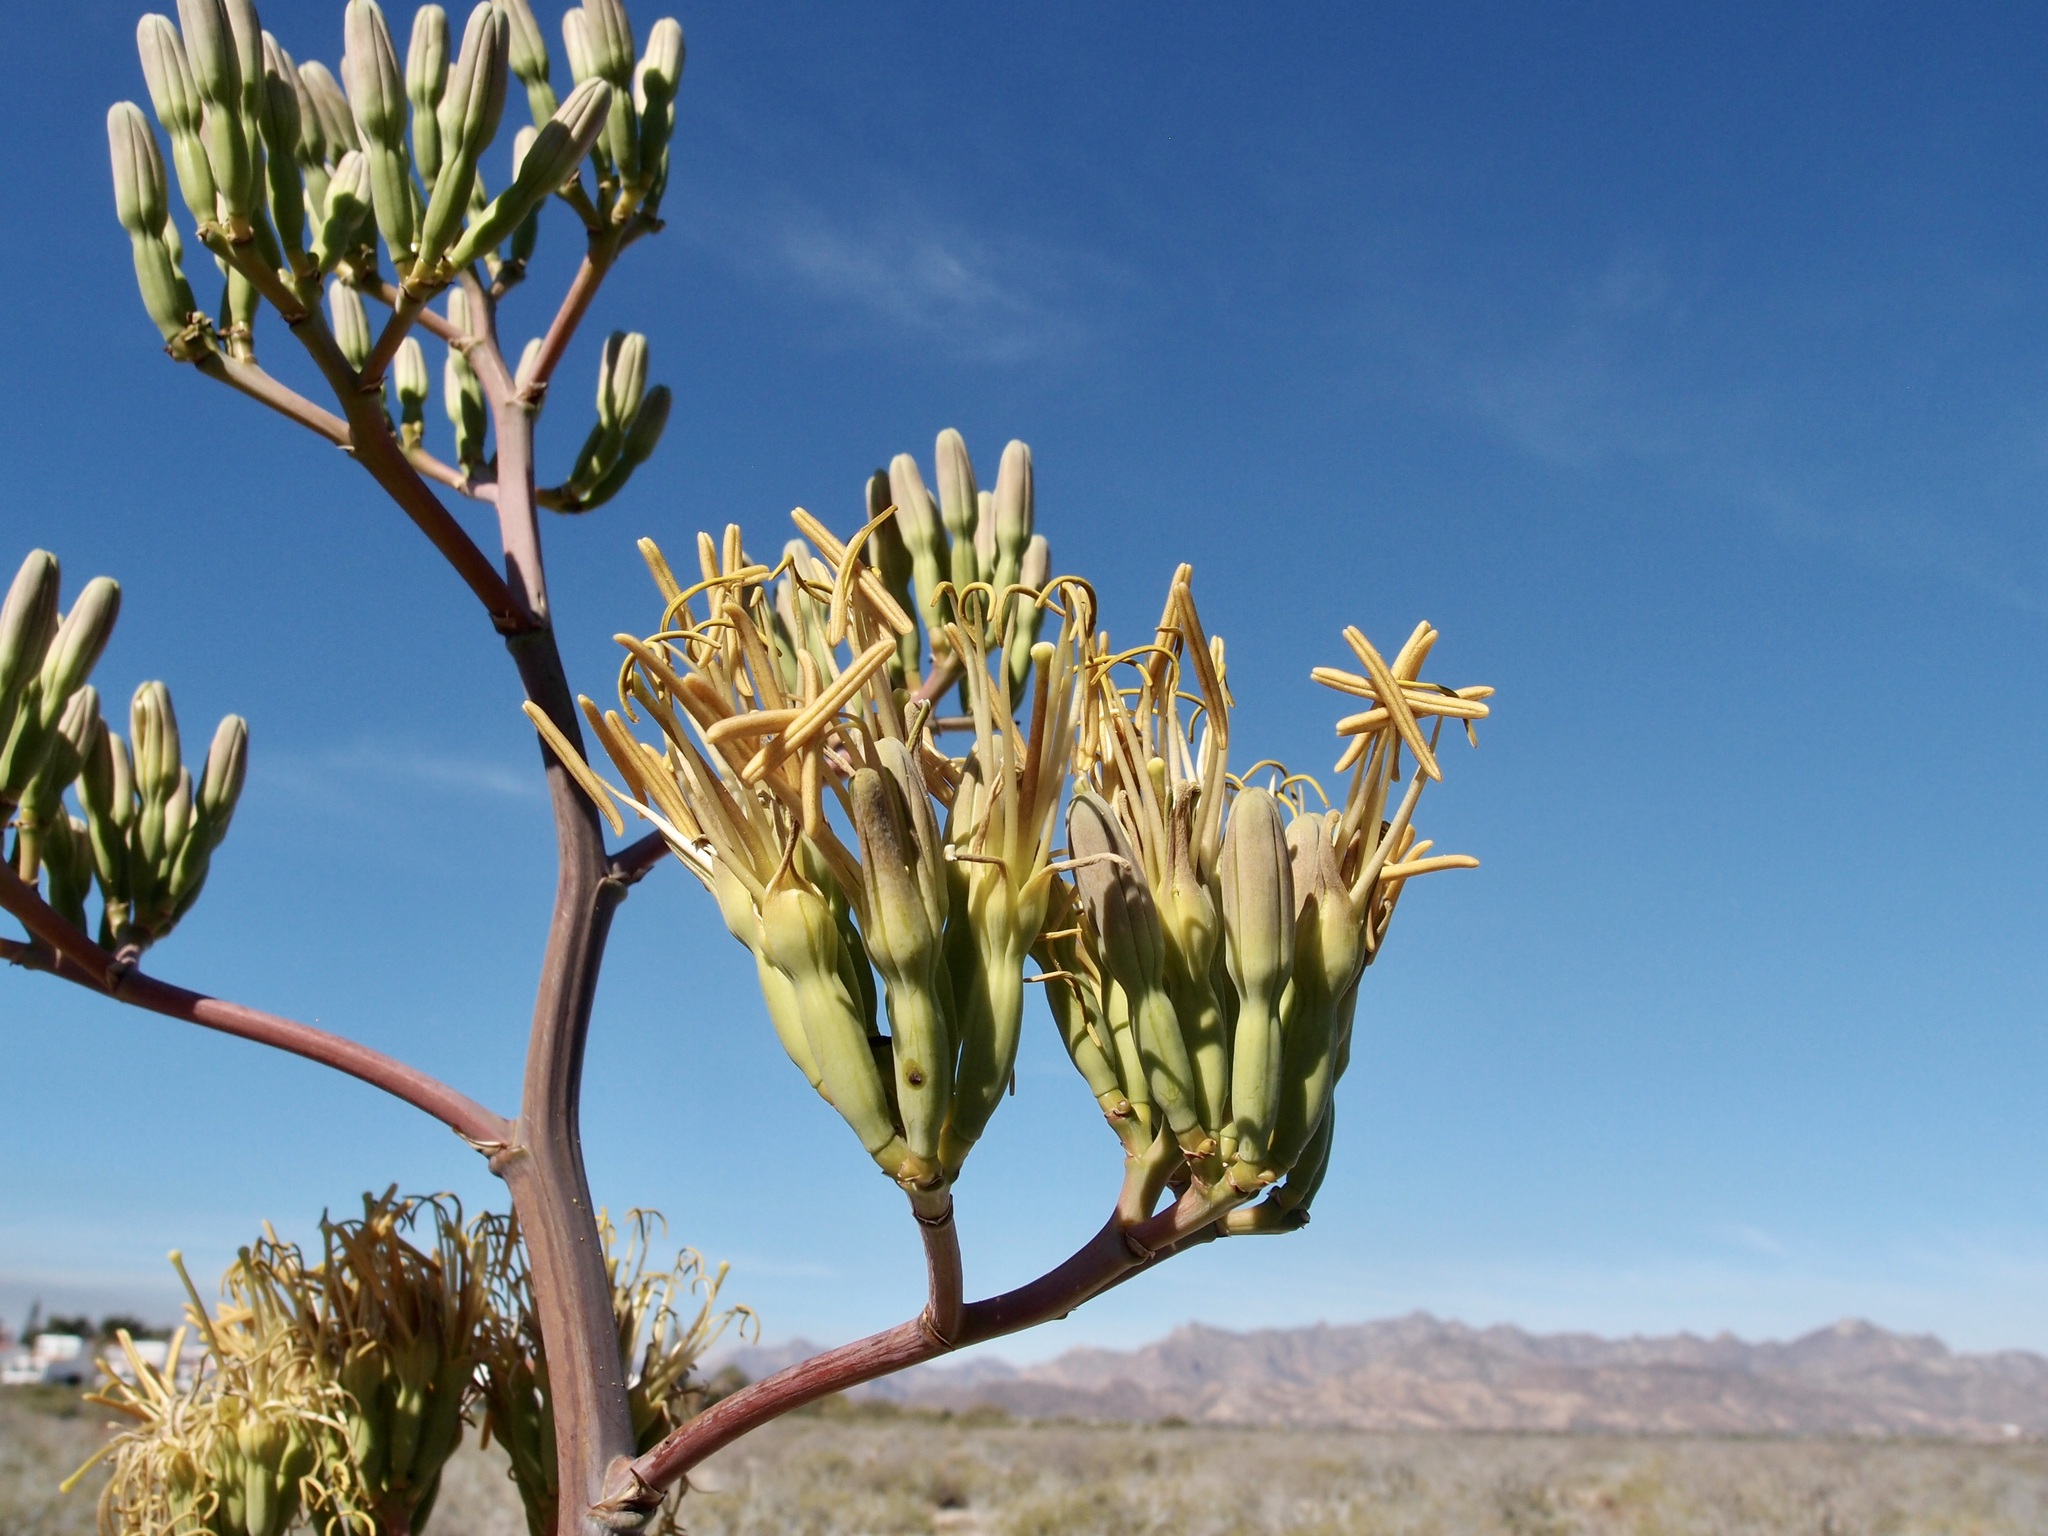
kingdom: Plantae
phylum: Tracheophyta
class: Liliopsida
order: Asparagales
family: Asparagaceae
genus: Agave
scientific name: Agave angustifolia
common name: Mescal agave
